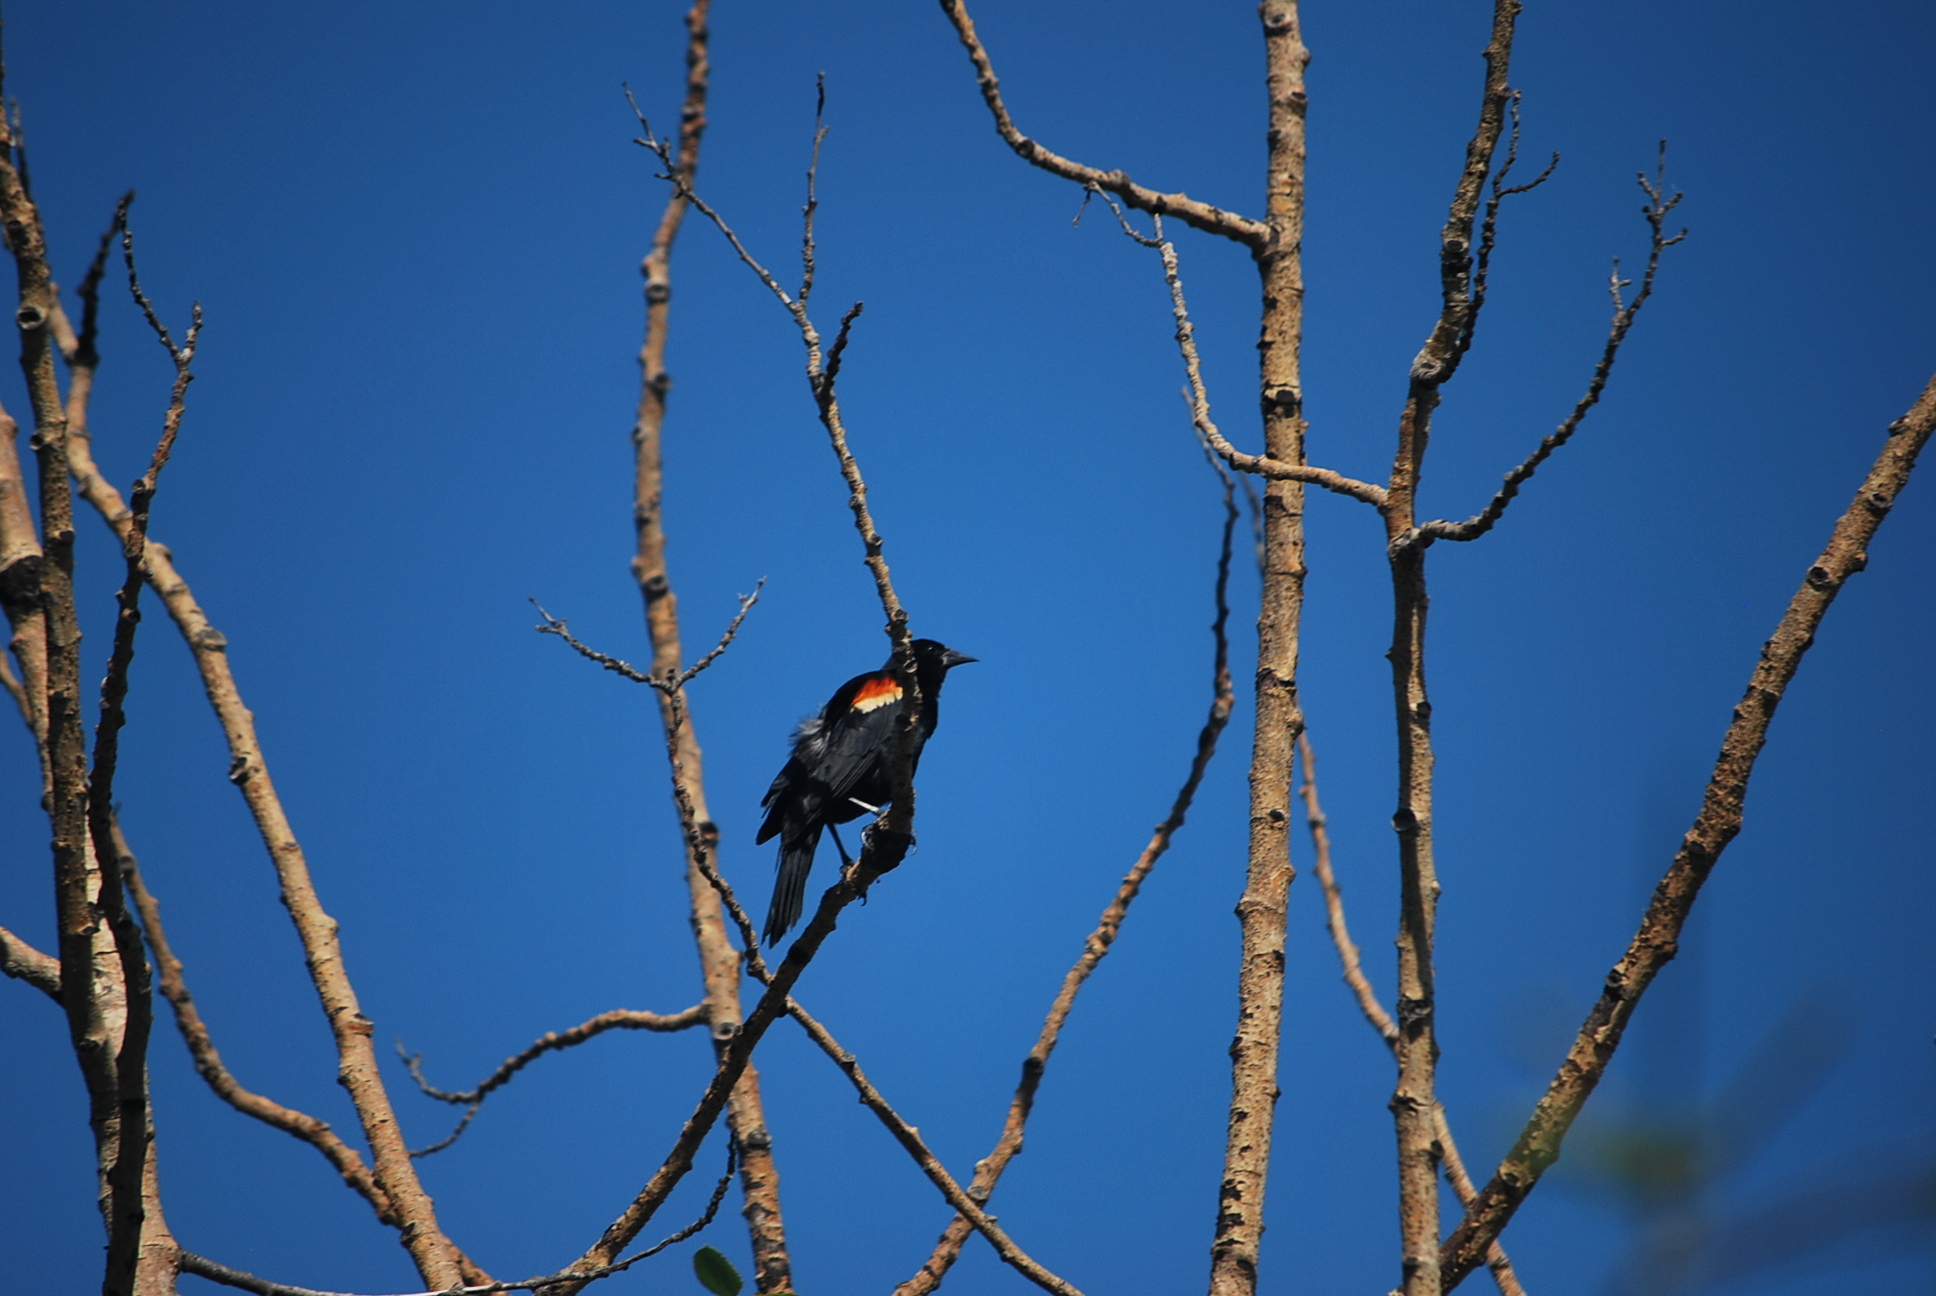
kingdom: Animalia
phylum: Chordata
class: Aves
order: Passeriformes
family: Icteridae
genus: Agelaius
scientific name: Agelaius phoeniceus
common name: Red-winged blackbird
